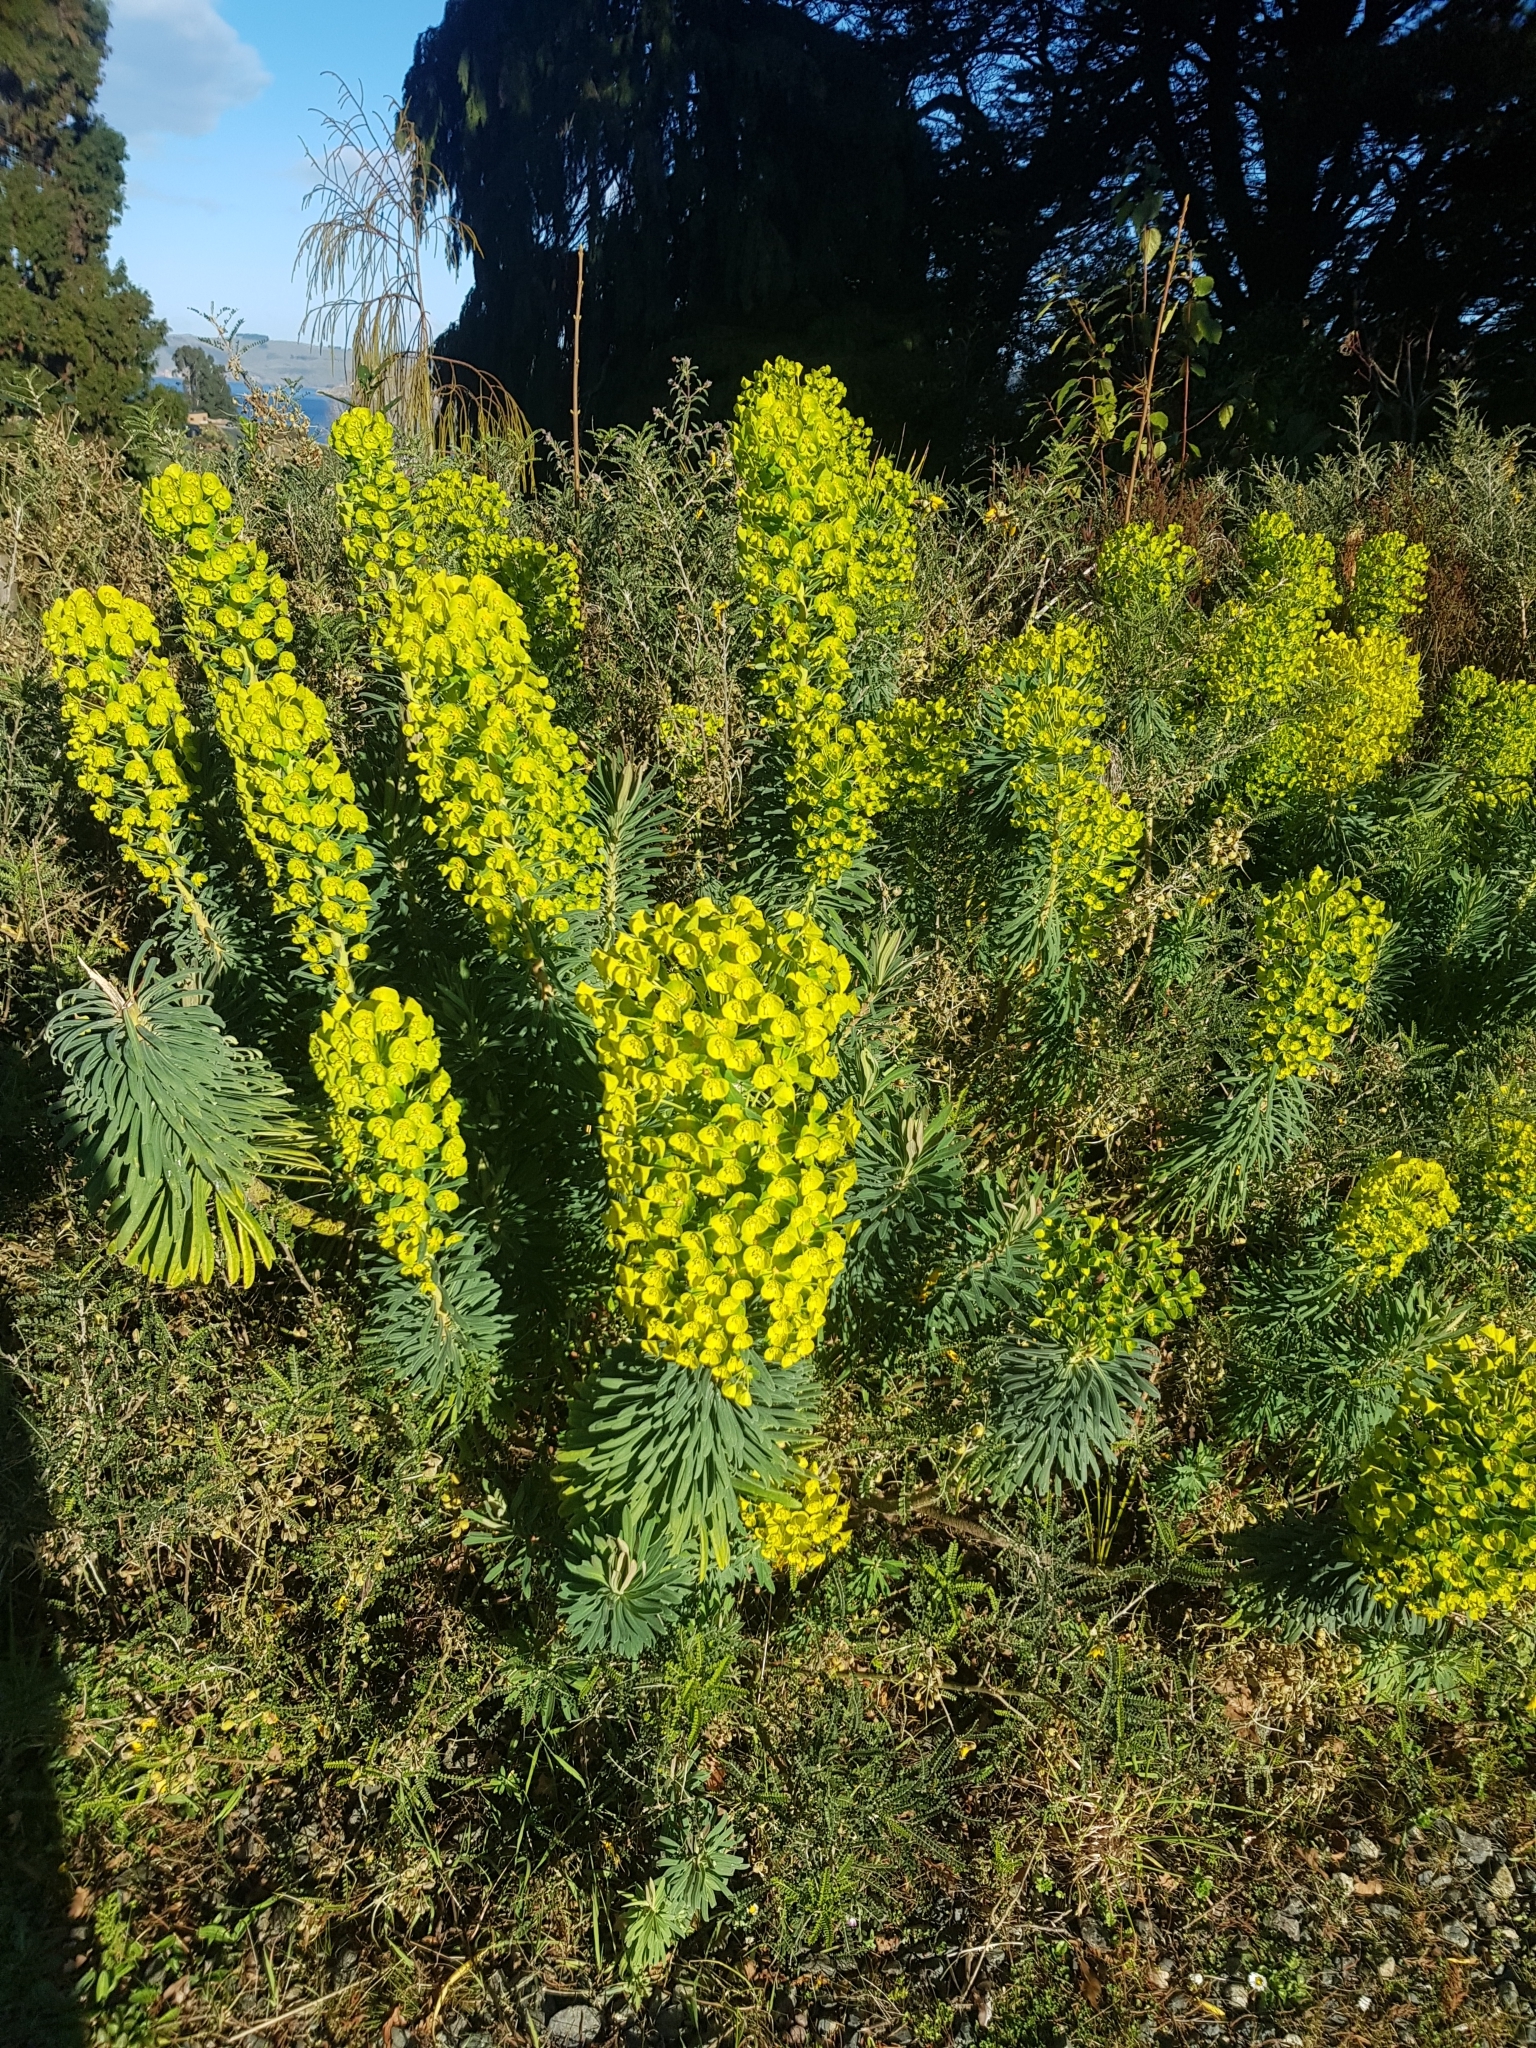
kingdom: Plantae
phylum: Tracheophyta
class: Magnoliopsida
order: Malpighiales
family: Euphorbiaceae
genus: Euphorbia
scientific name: Euphorbia characias
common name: Mediterranean spurge
